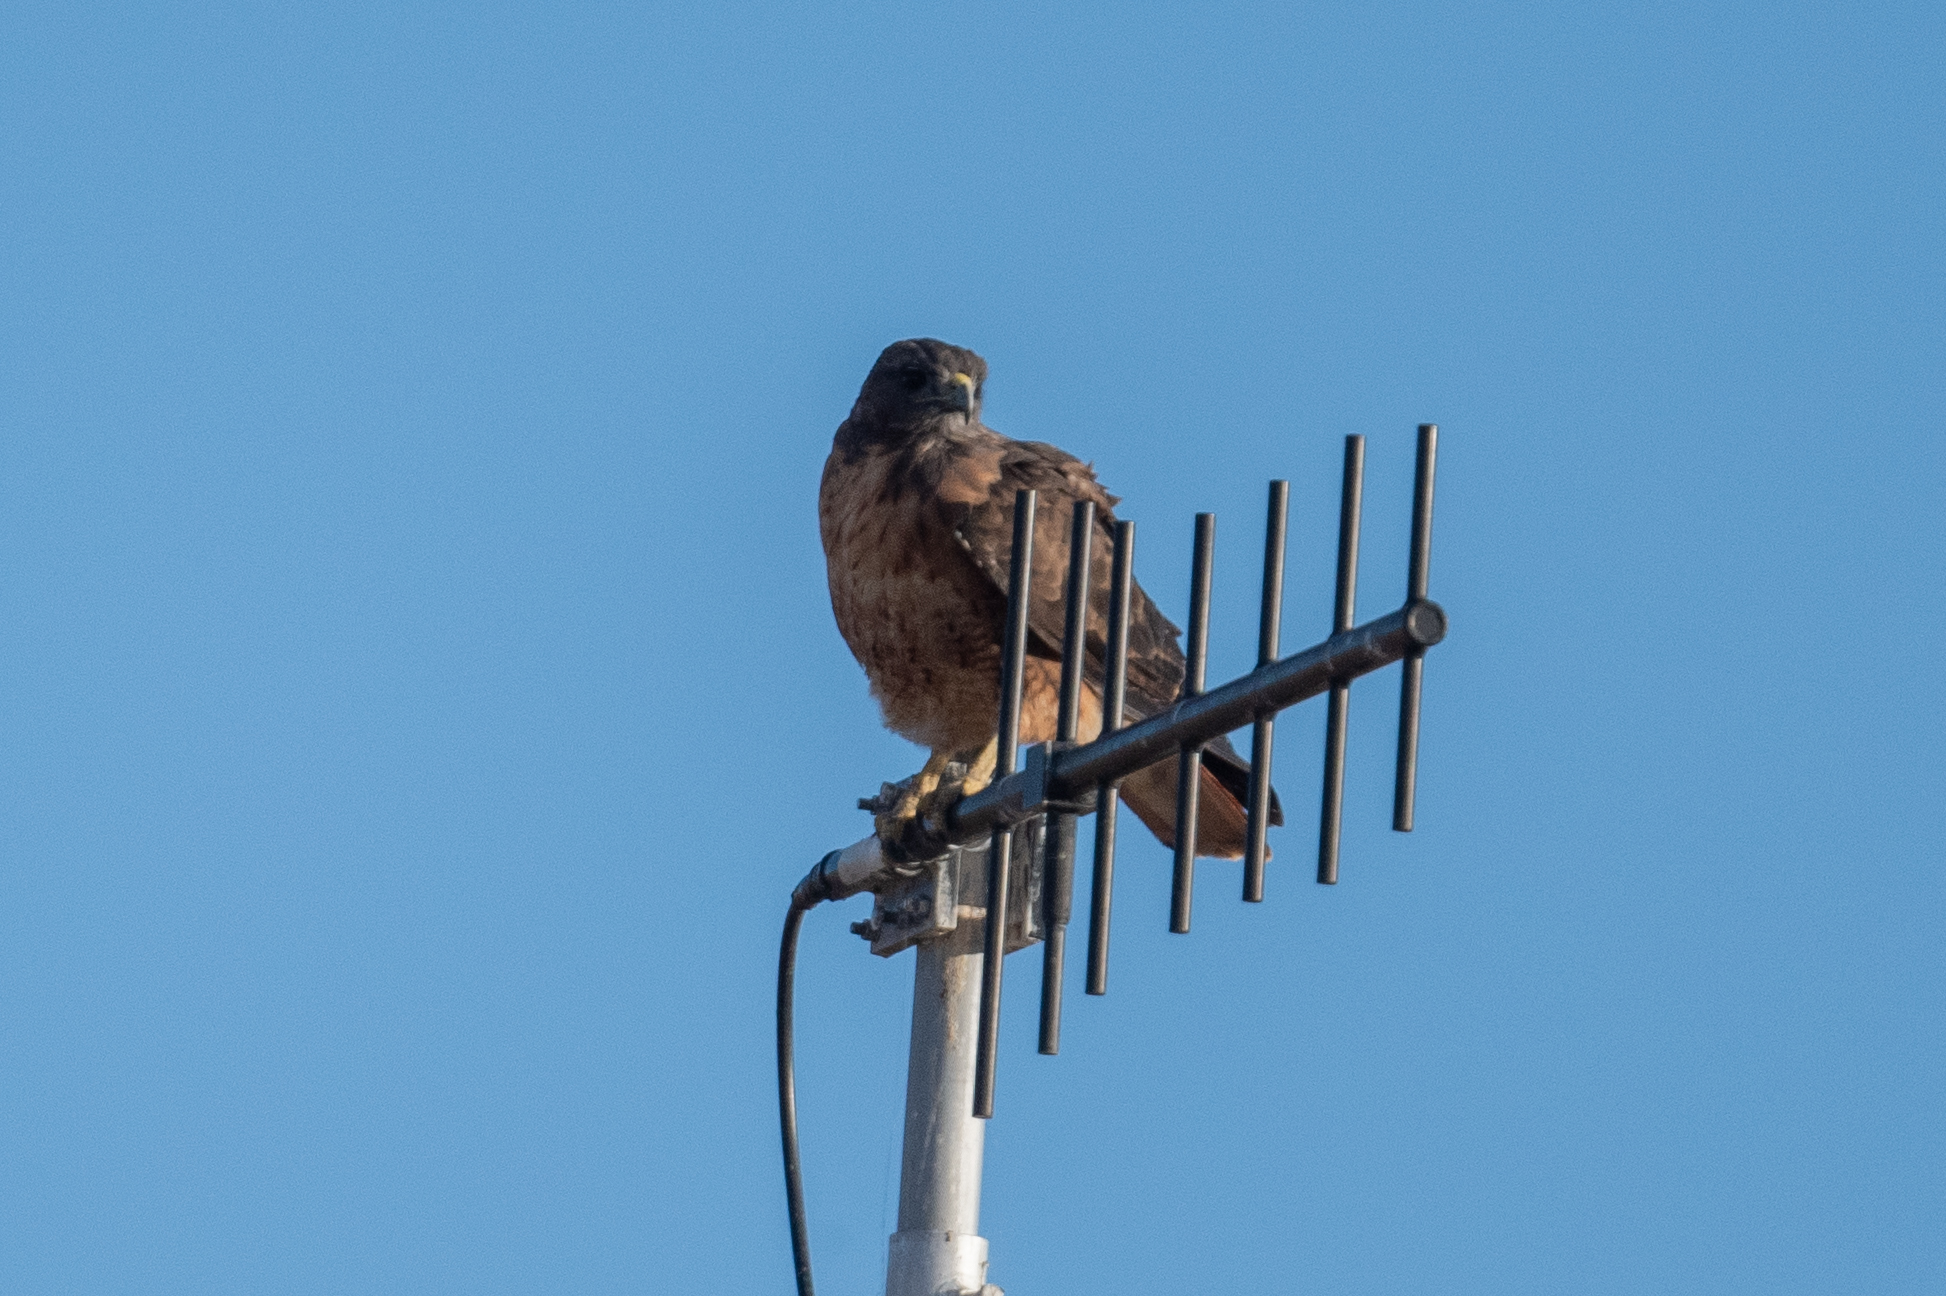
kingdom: Animalia
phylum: Chordata
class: Aves
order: Accipitriformes
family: Accipitridae
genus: Buteo
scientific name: Buteo jamaicensis
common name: Red-tailed hawk
